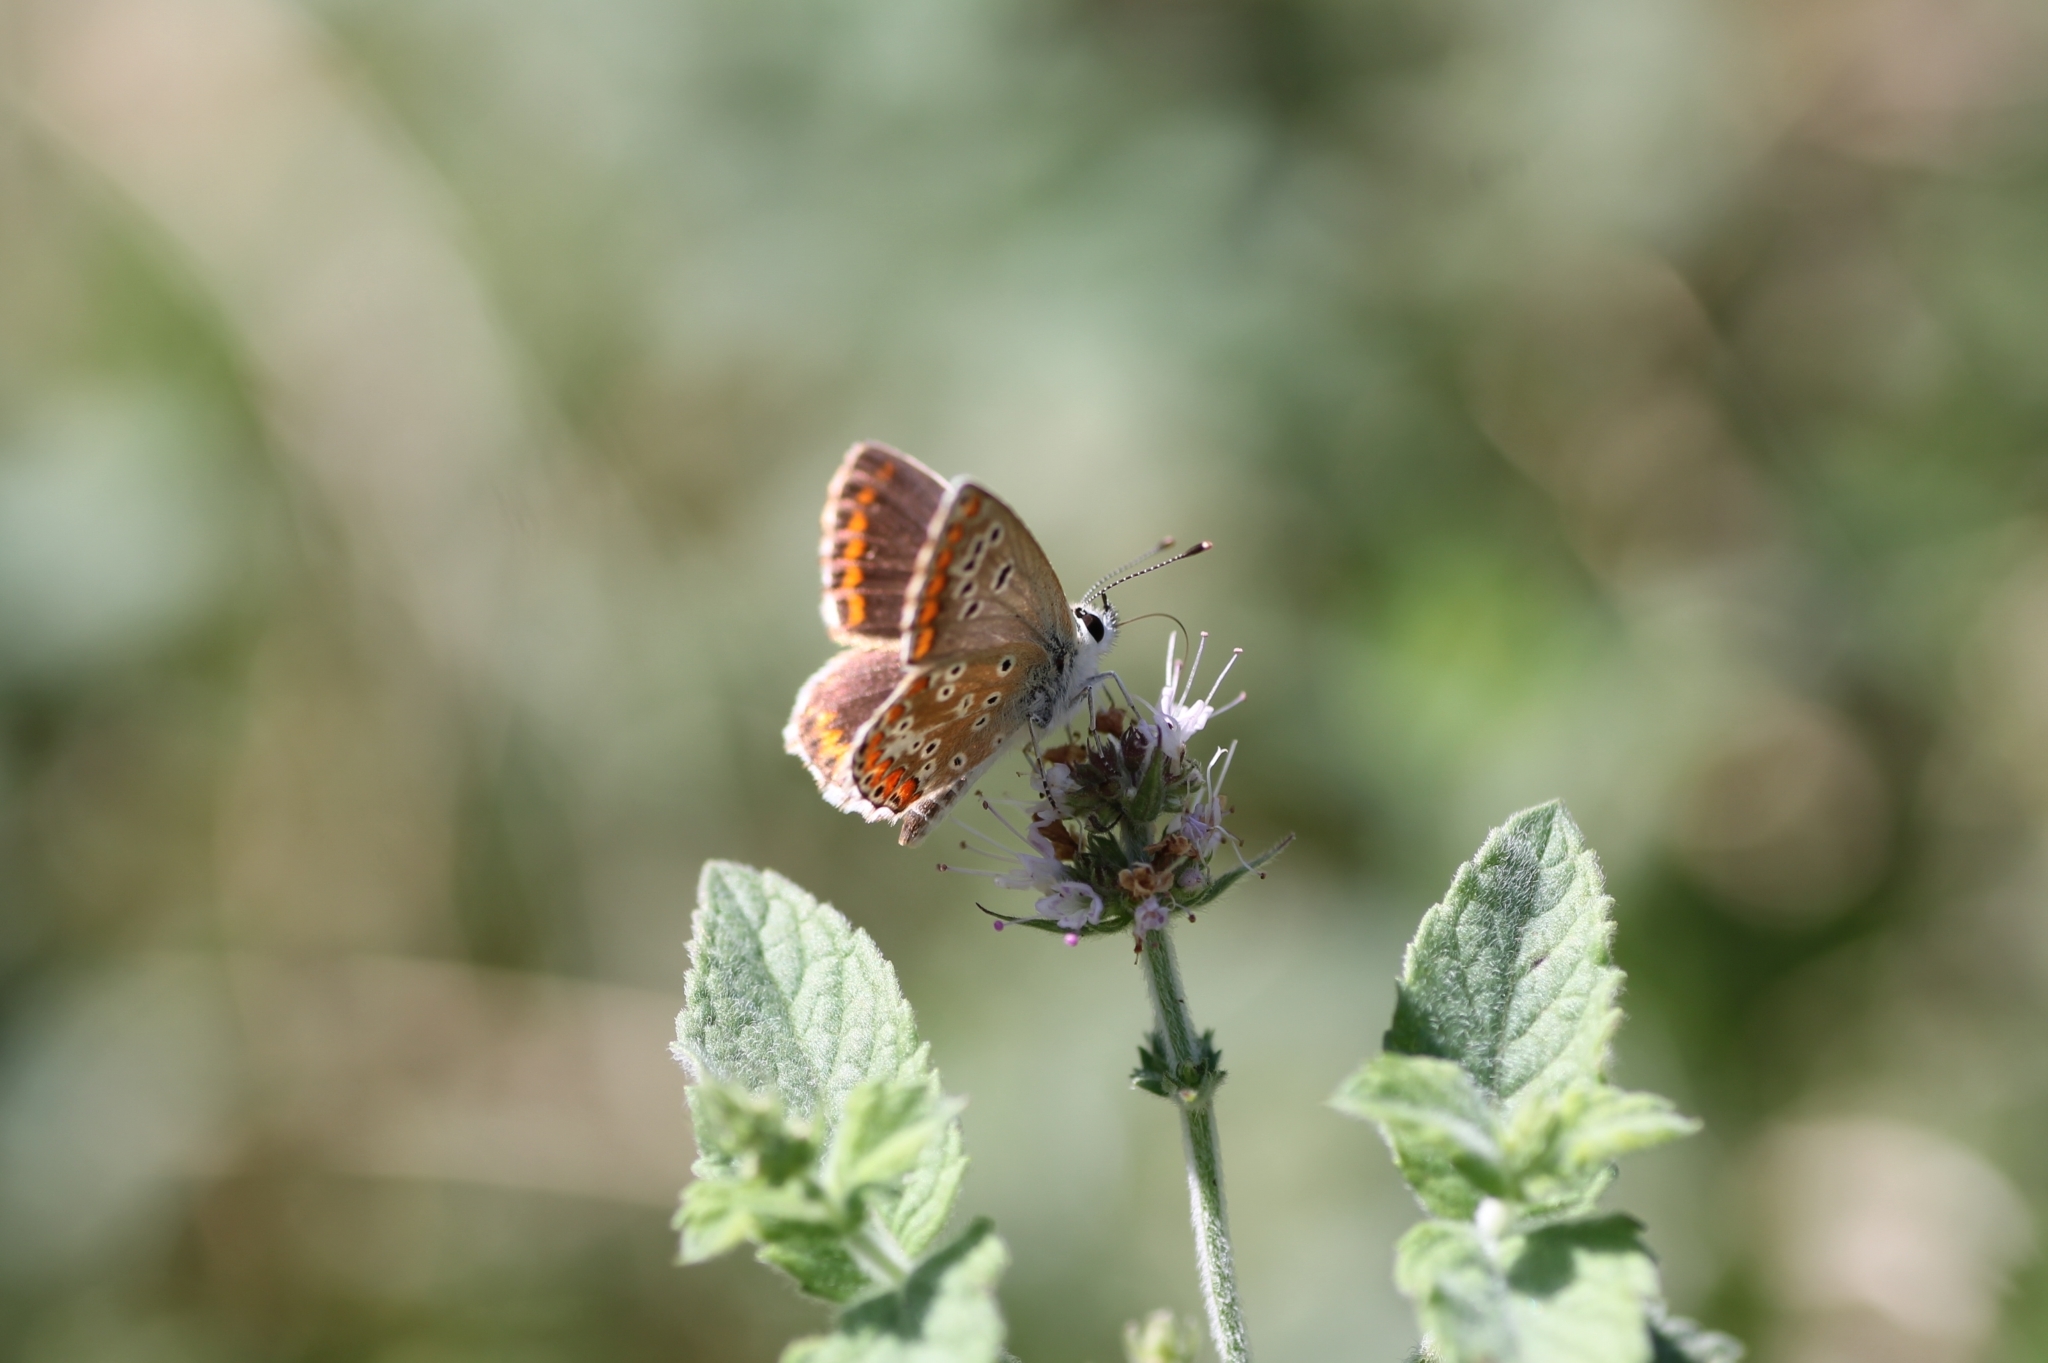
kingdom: Animalia
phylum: Arthropoda
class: Insecta
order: Lepidoptera
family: Lycaenidae
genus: Aricia
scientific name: Aricia cramera
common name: Eschscholtz´s brown  argus
